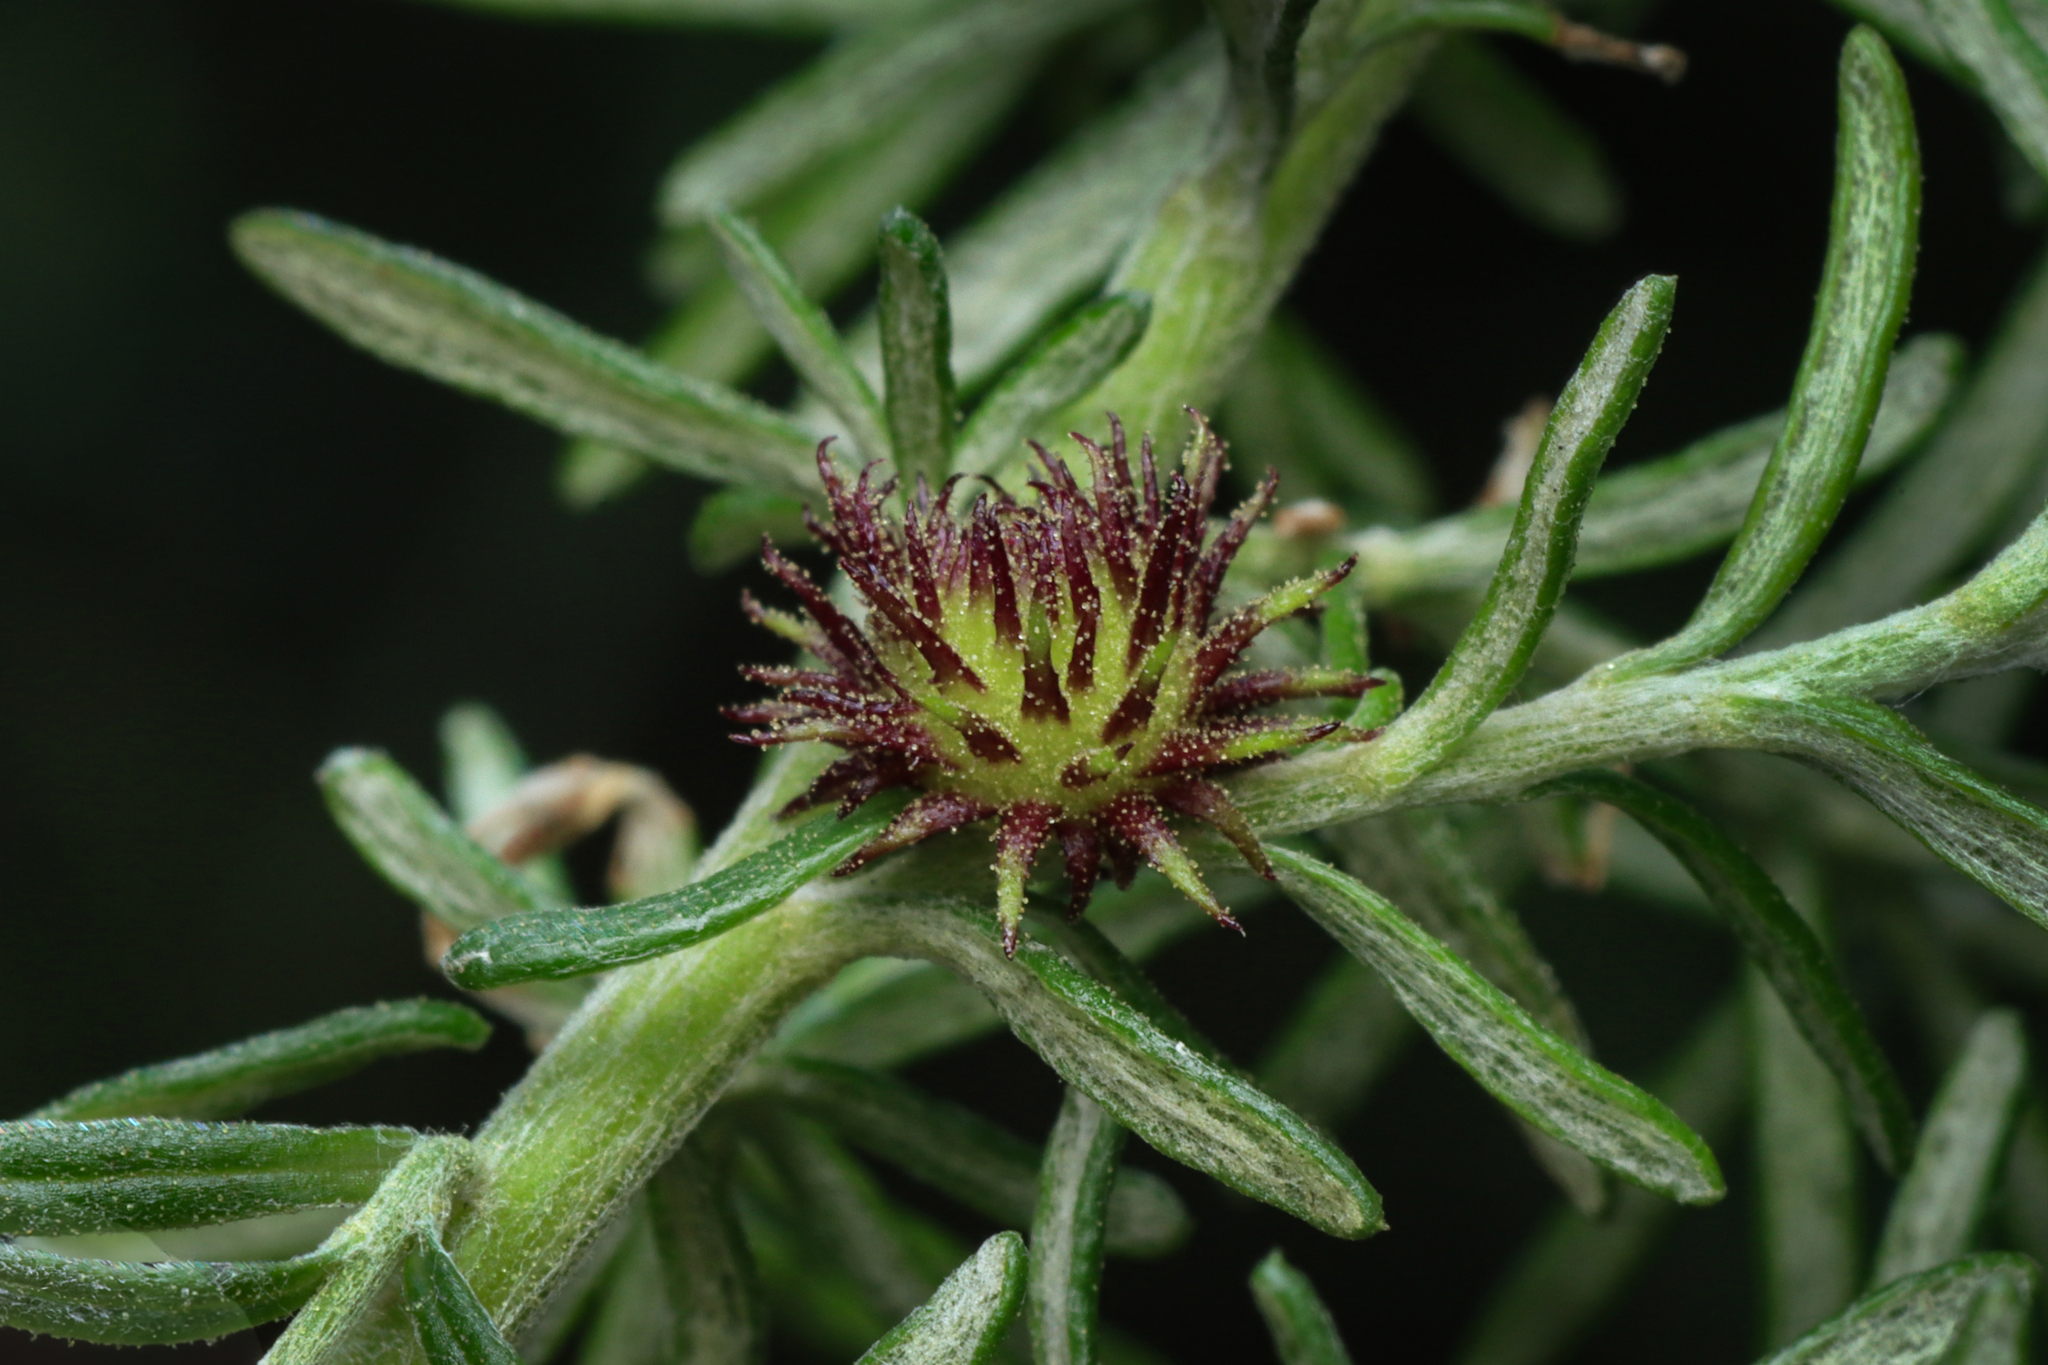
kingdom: Animalia
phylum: Arthropoda
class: Insecta
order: Diptera
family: Cecidomyiidae
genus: Trigonomyia
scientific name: Trigonomyia ananas
